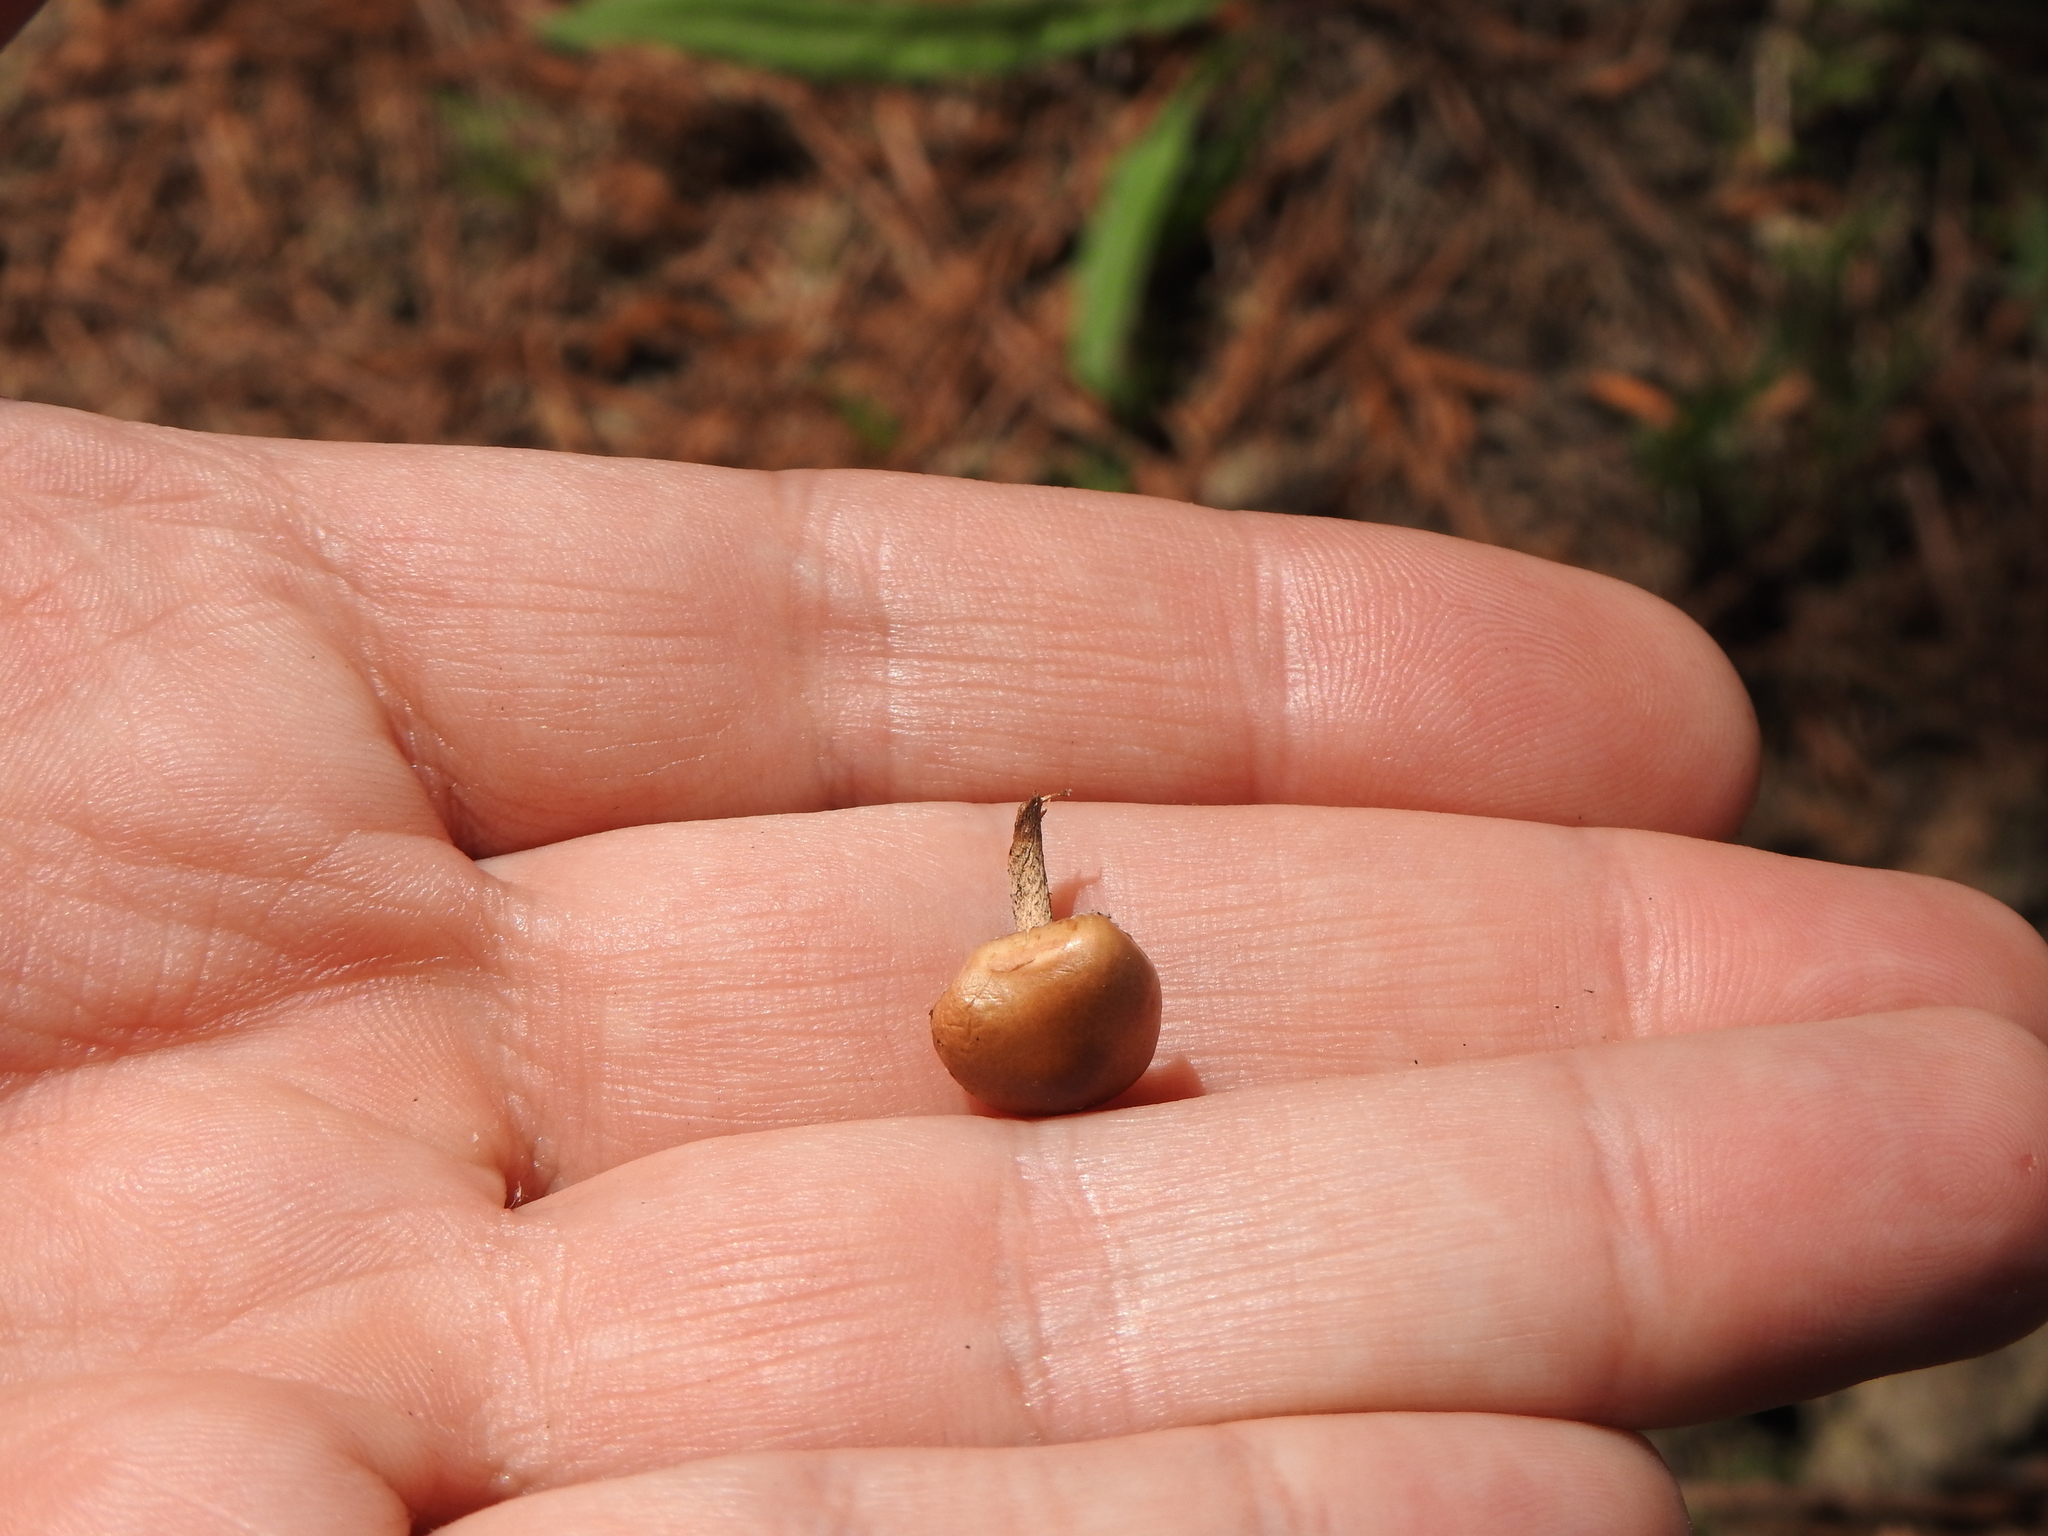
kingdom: Fungi
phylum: Basidiomycota
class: Agaricomycetes
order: Agaricales
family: Strophariaceae
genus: Deconica
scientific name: Deconica coprophila
